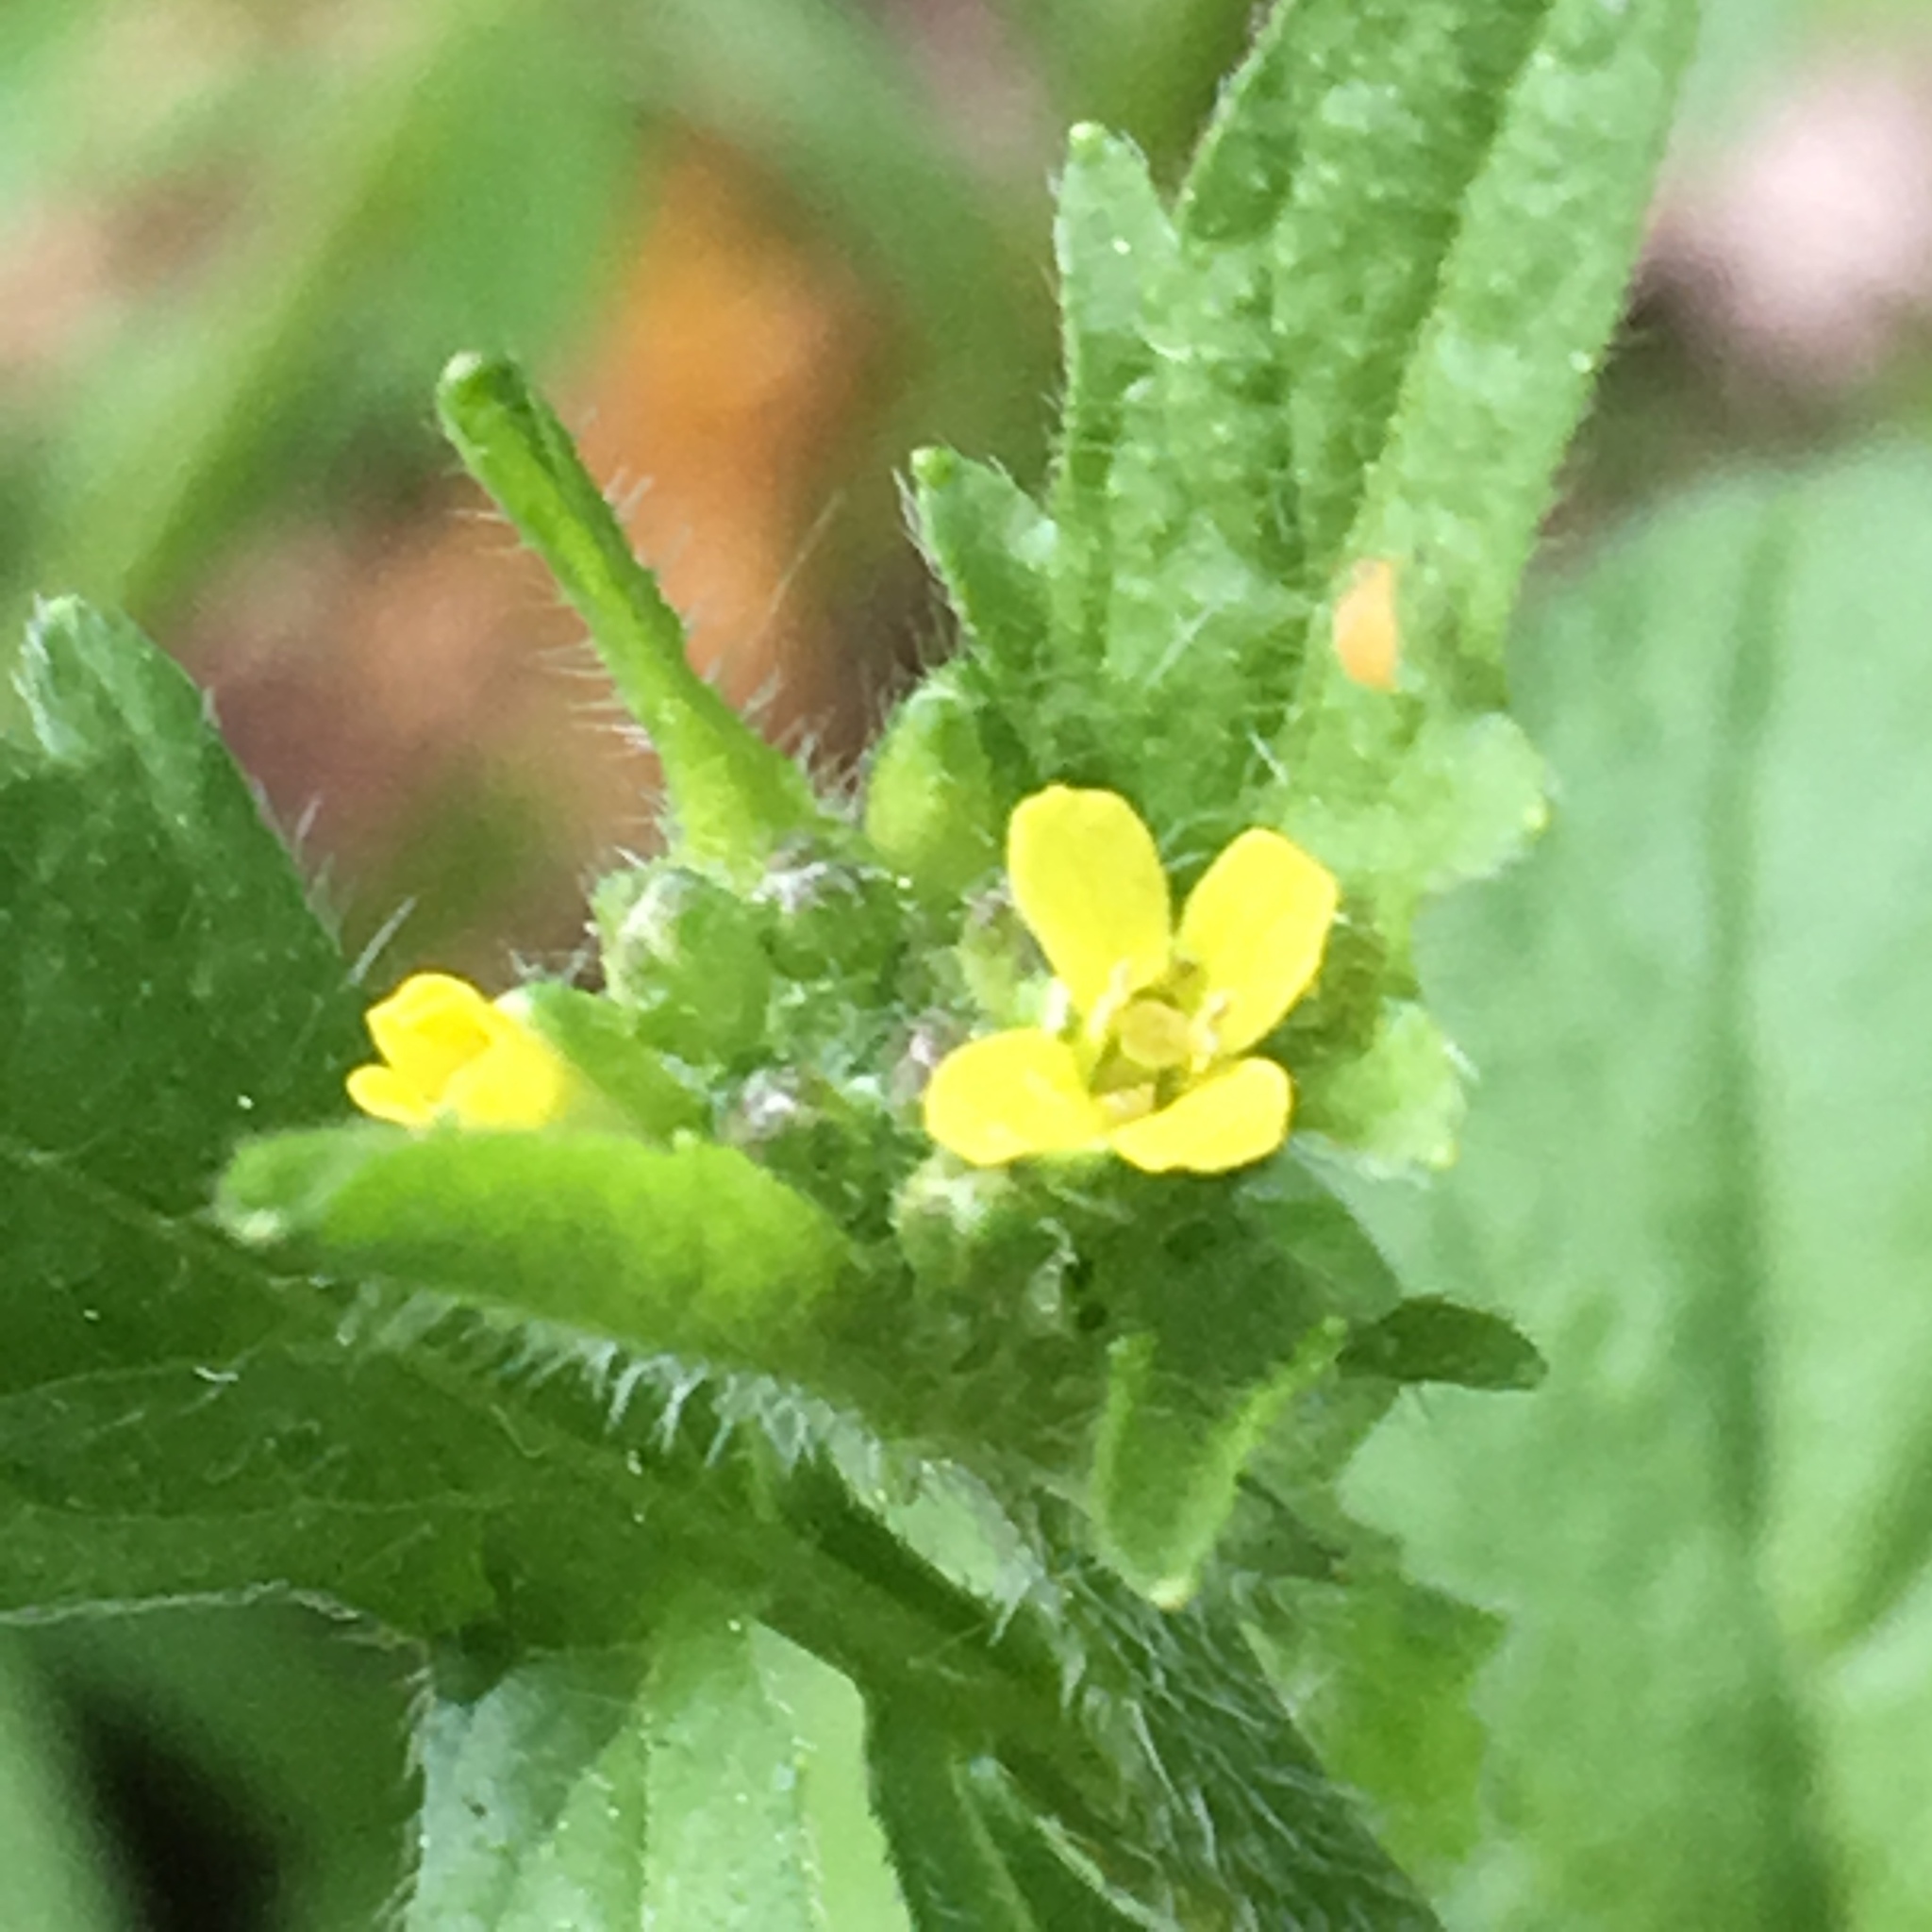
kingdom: Plantae
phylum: Tracheophyta
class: Magnoliopsida
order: Brassicales
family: Brassicaceae
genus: Sisymbrium
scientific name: Sisymbrium officinale
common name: Hedge mustard
